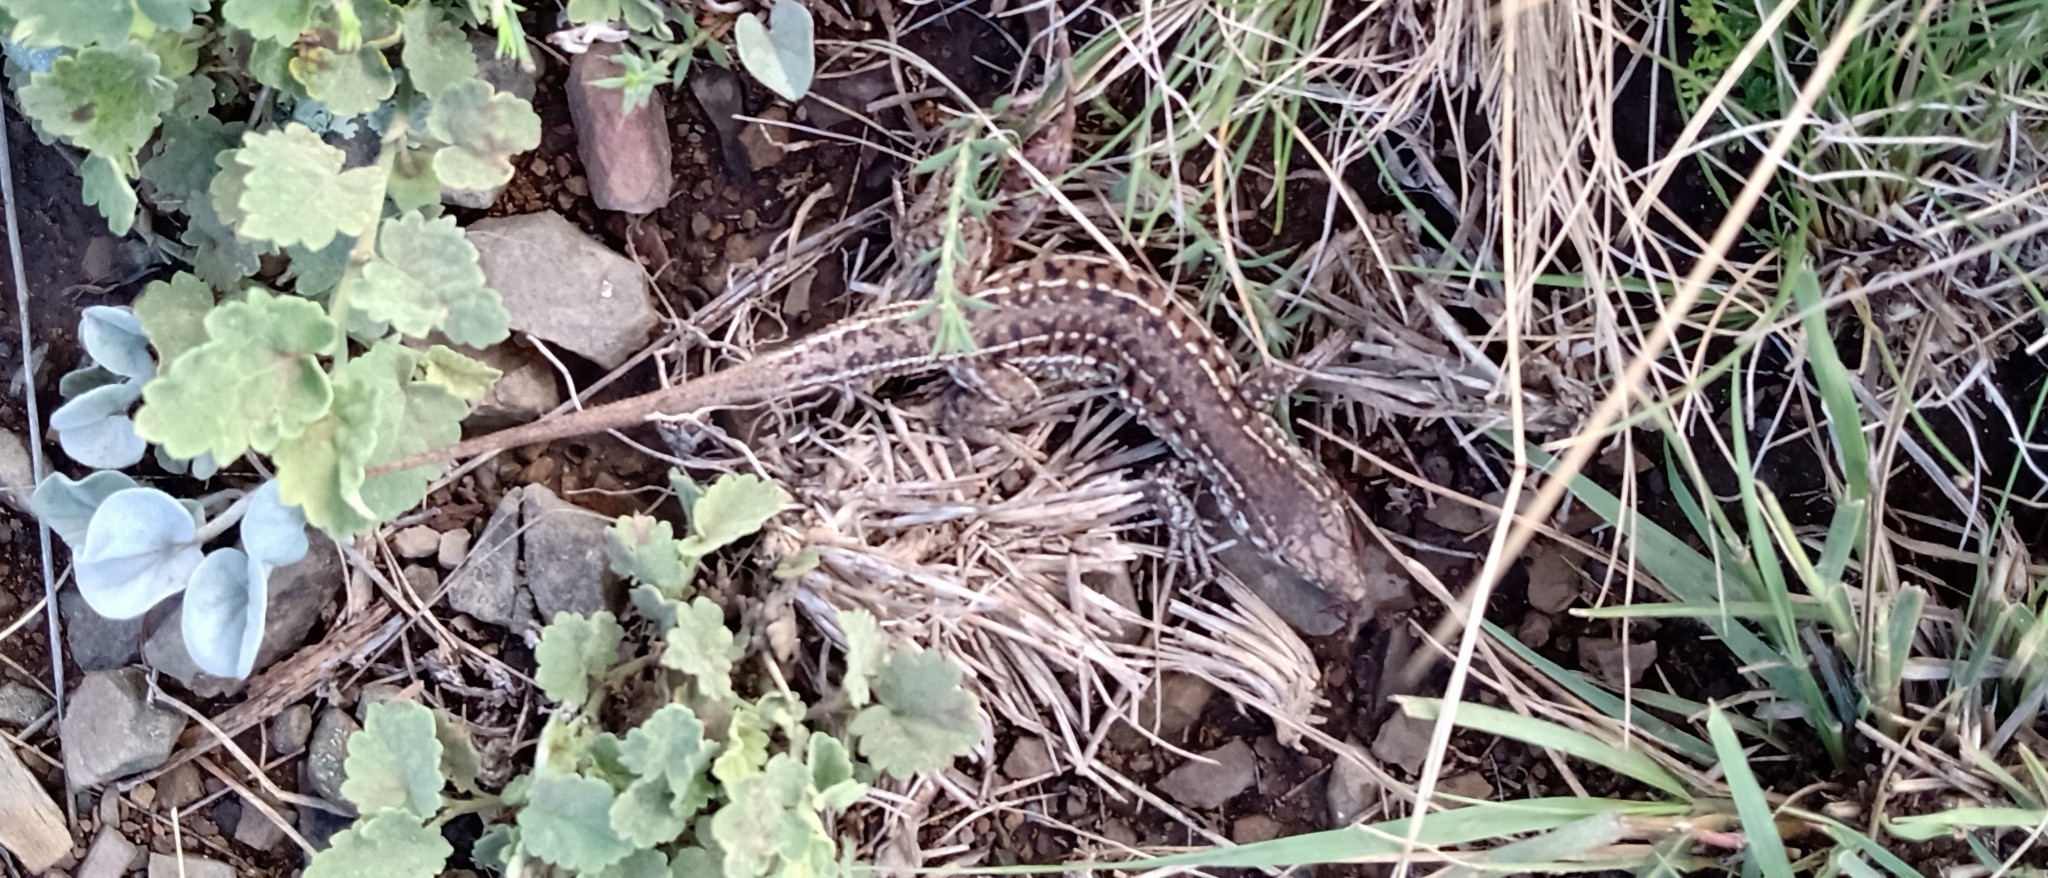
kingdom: Animalia
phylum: Chordata
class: Squamata
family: Teiidae
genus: Contomastix
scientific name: Contomastix celata
